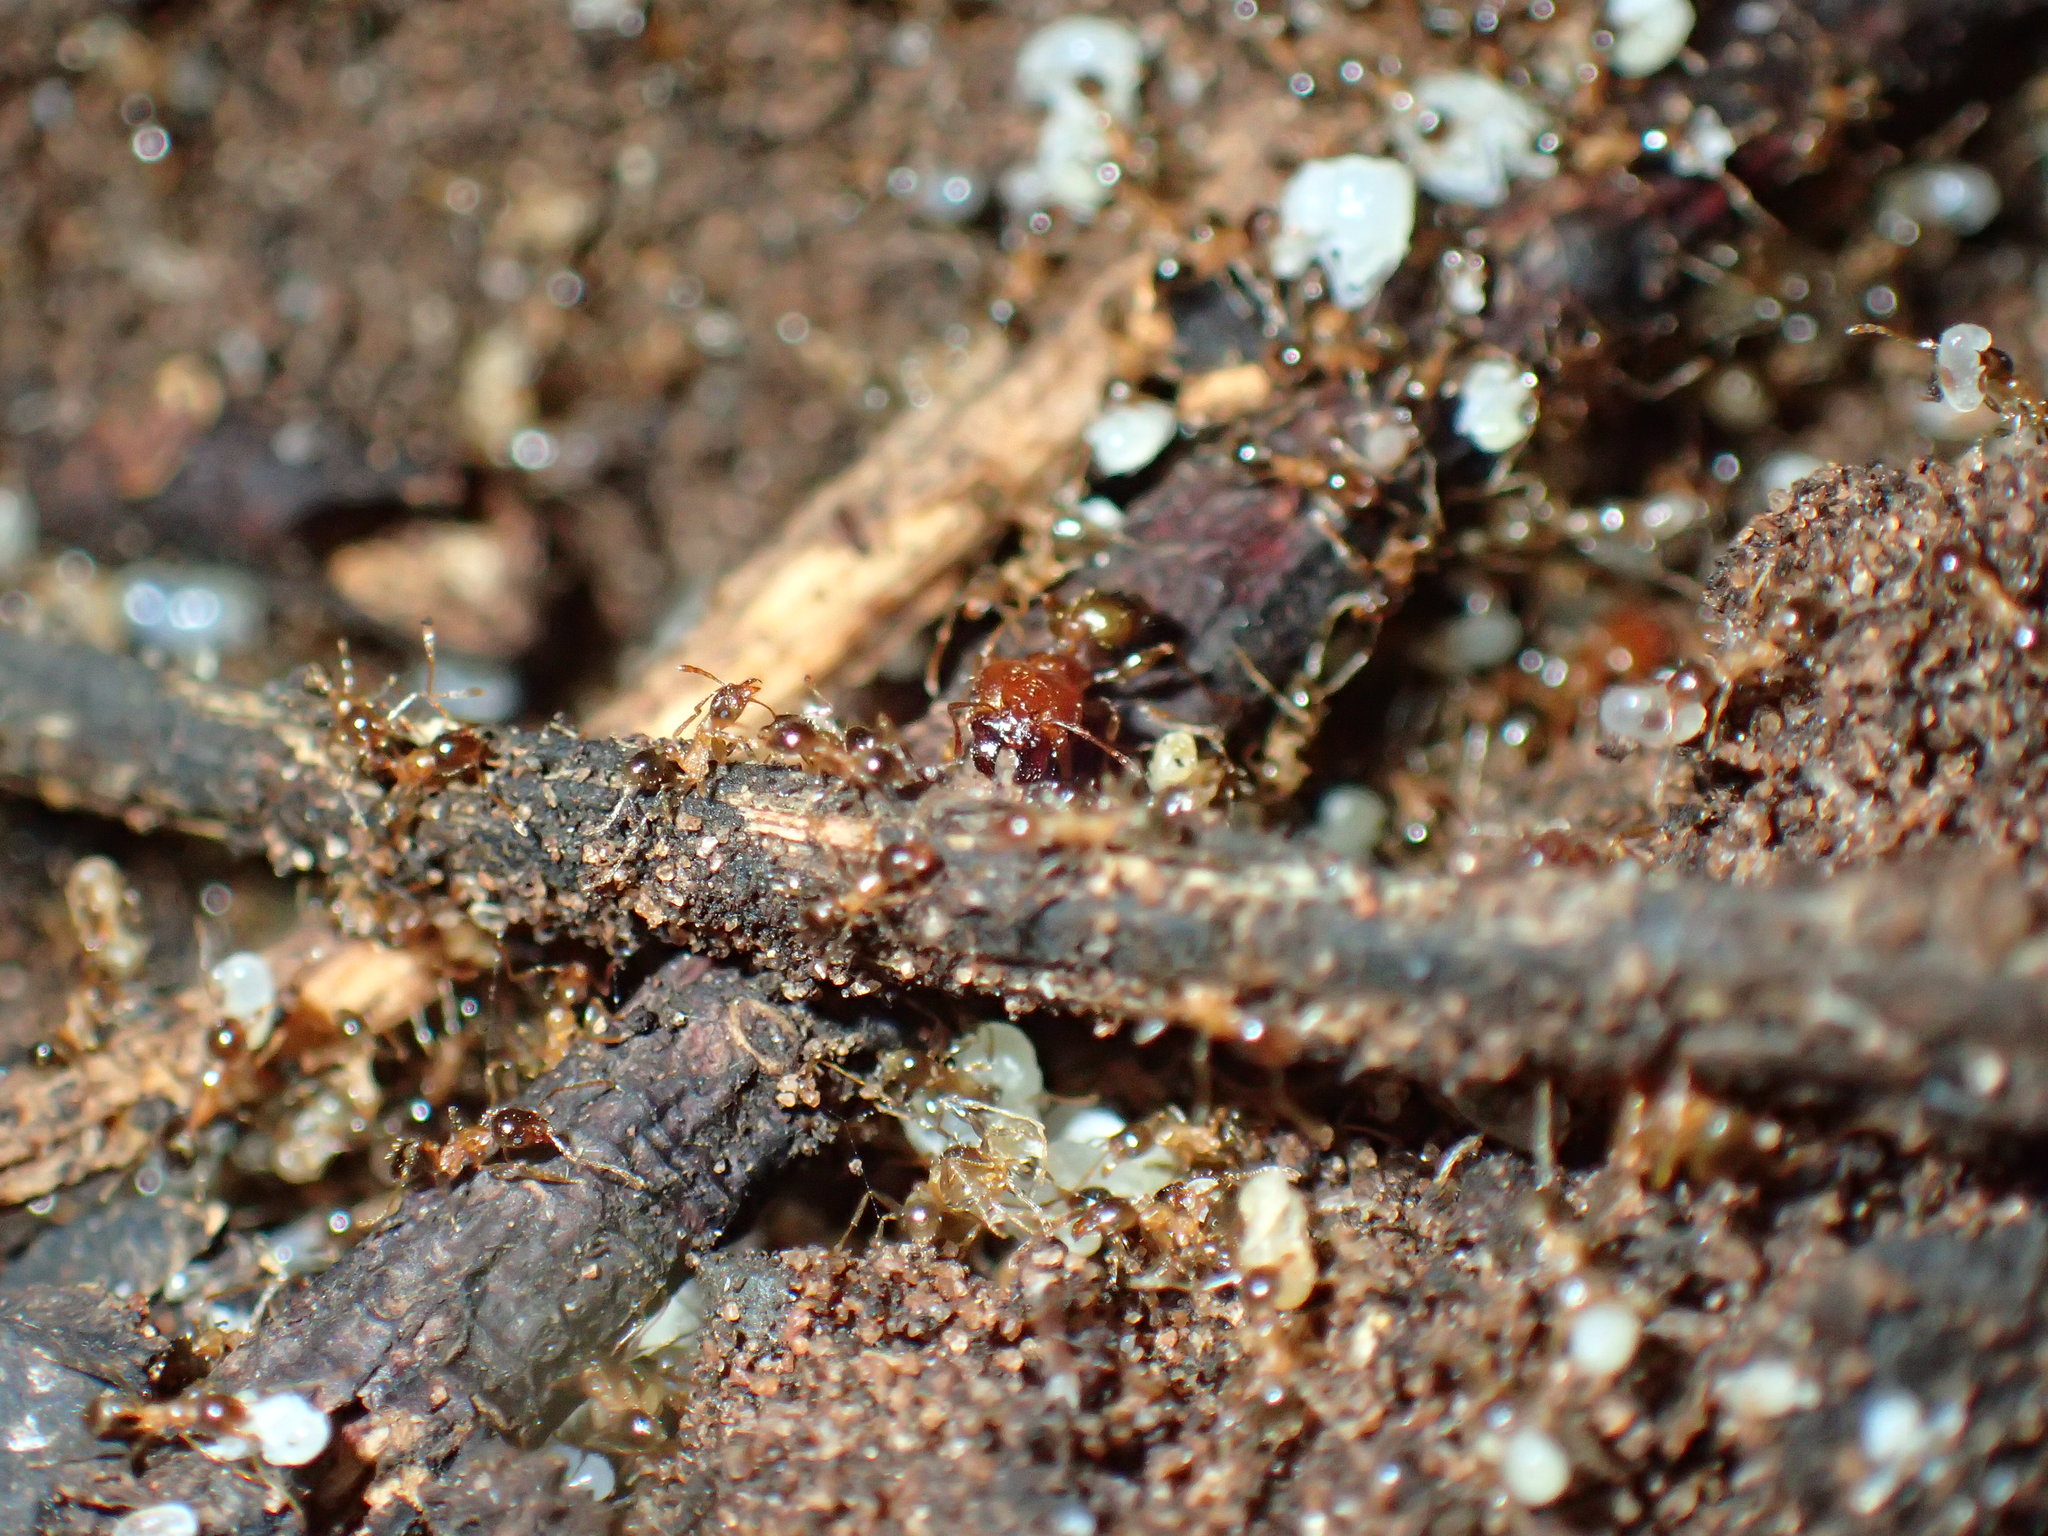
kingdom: Animalia
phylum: Arthropoda
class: Insecta
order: Hymenoptera
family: Formicidae
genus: Pheidole
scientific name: Pheidole megacephala
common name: Bigheaded ant
